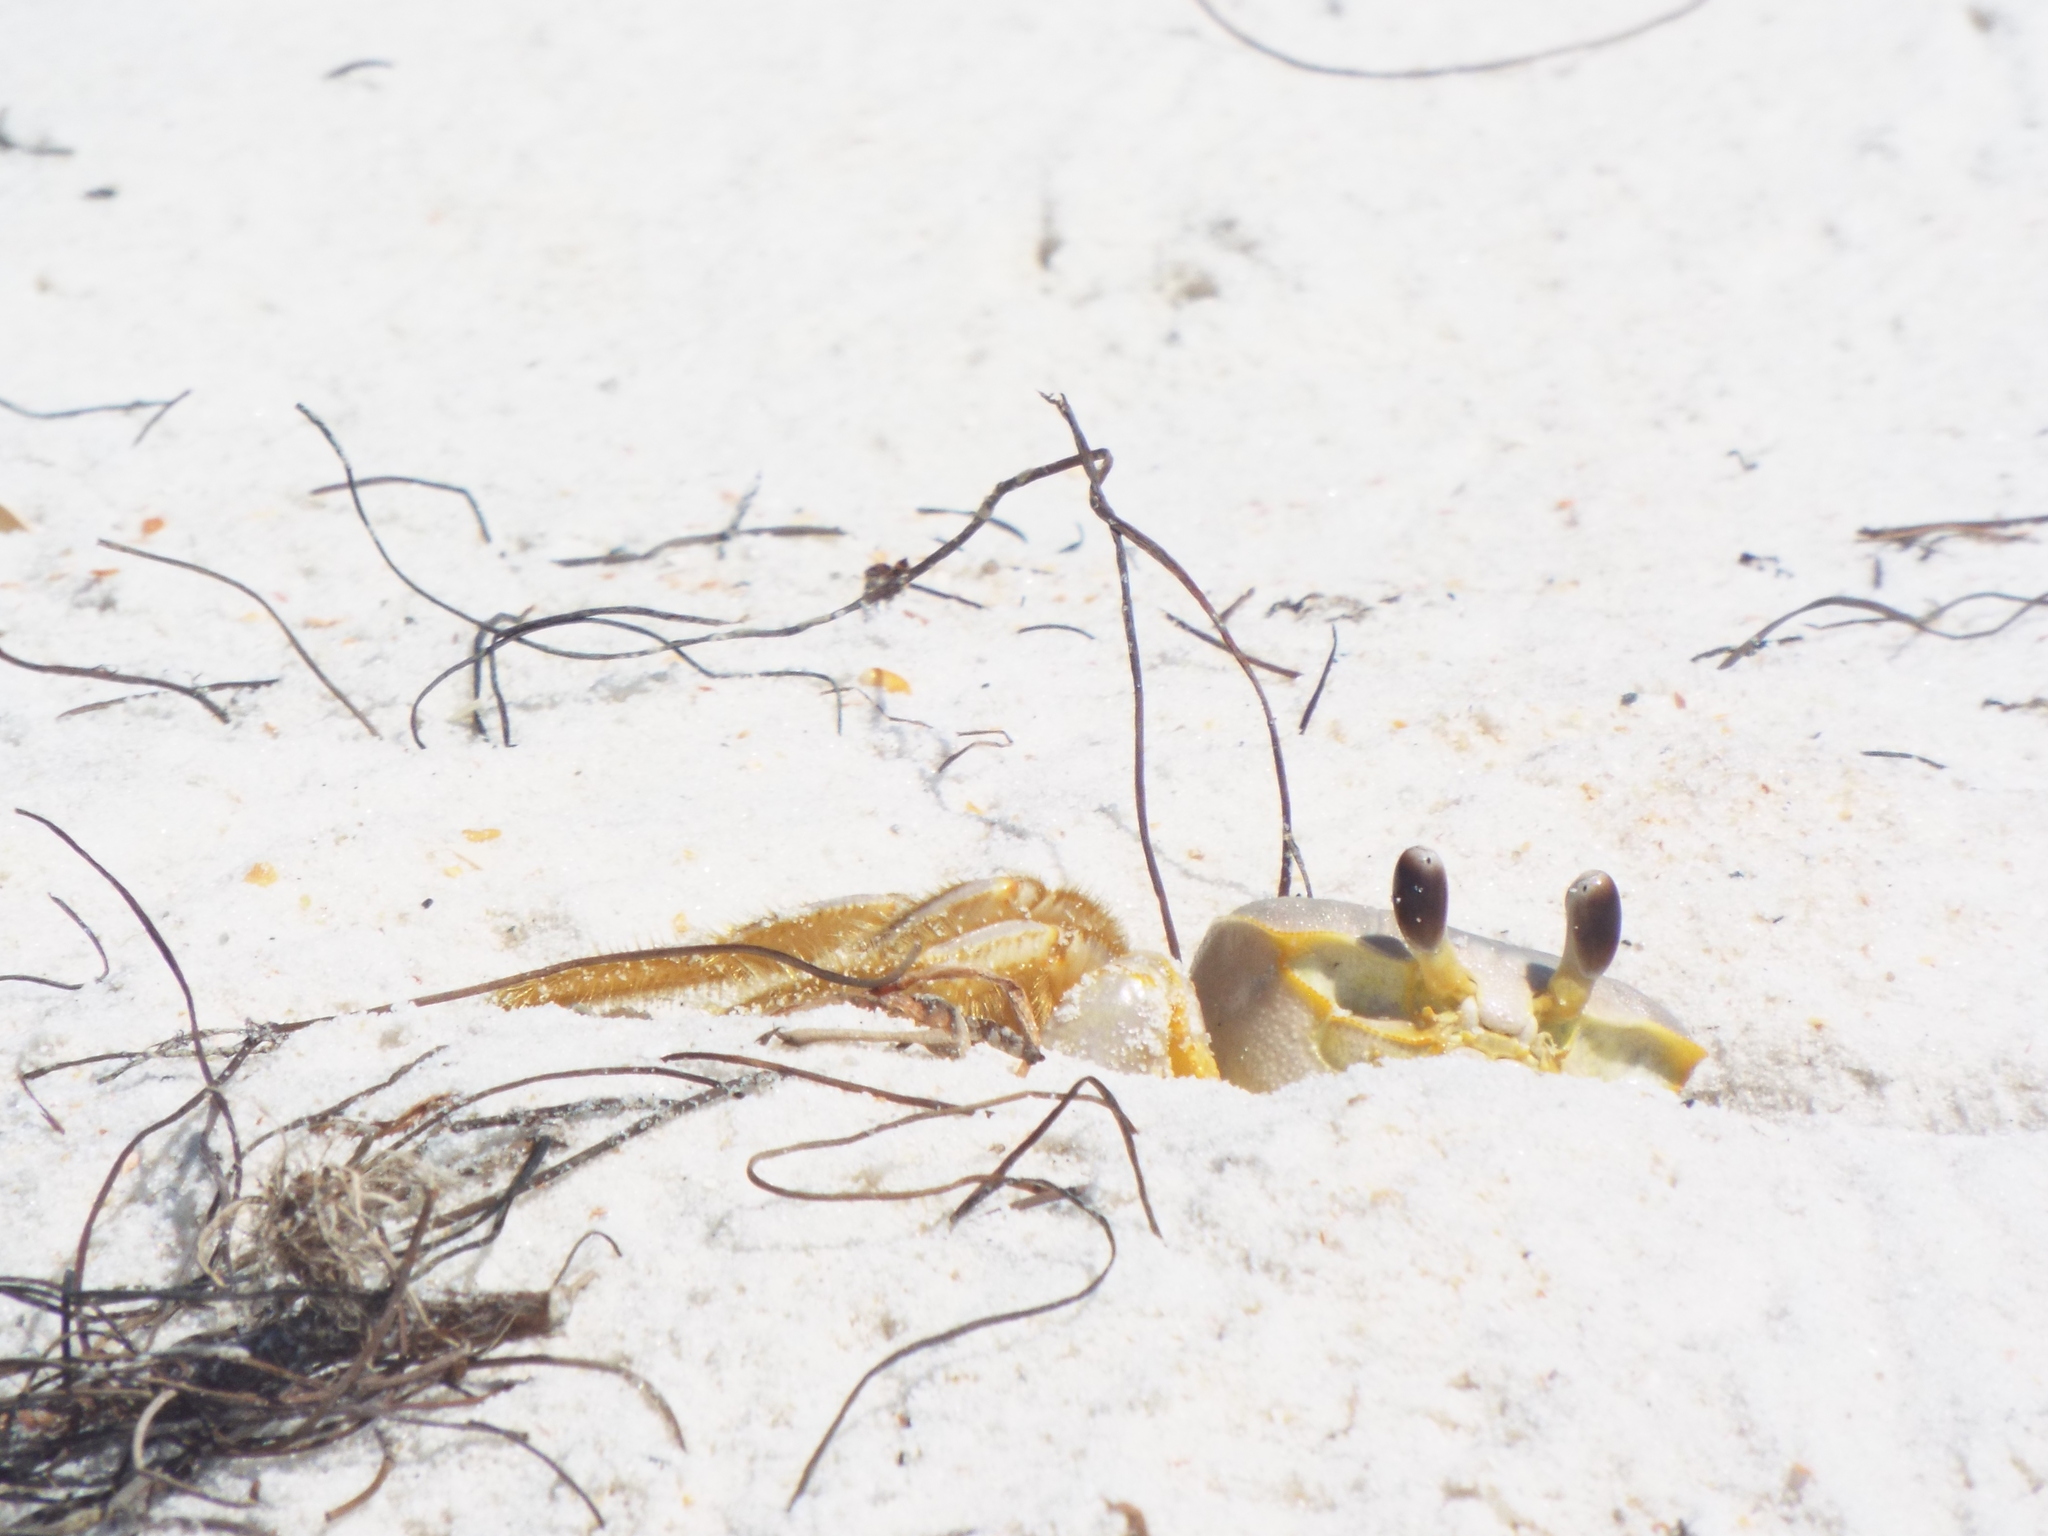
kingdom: Animalia
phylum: Arthropoda
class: Malacostraca
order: Decapoda
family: Ocypodidae
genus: Ocypode
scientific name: Ocypode quadrata
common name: Ghost crab
